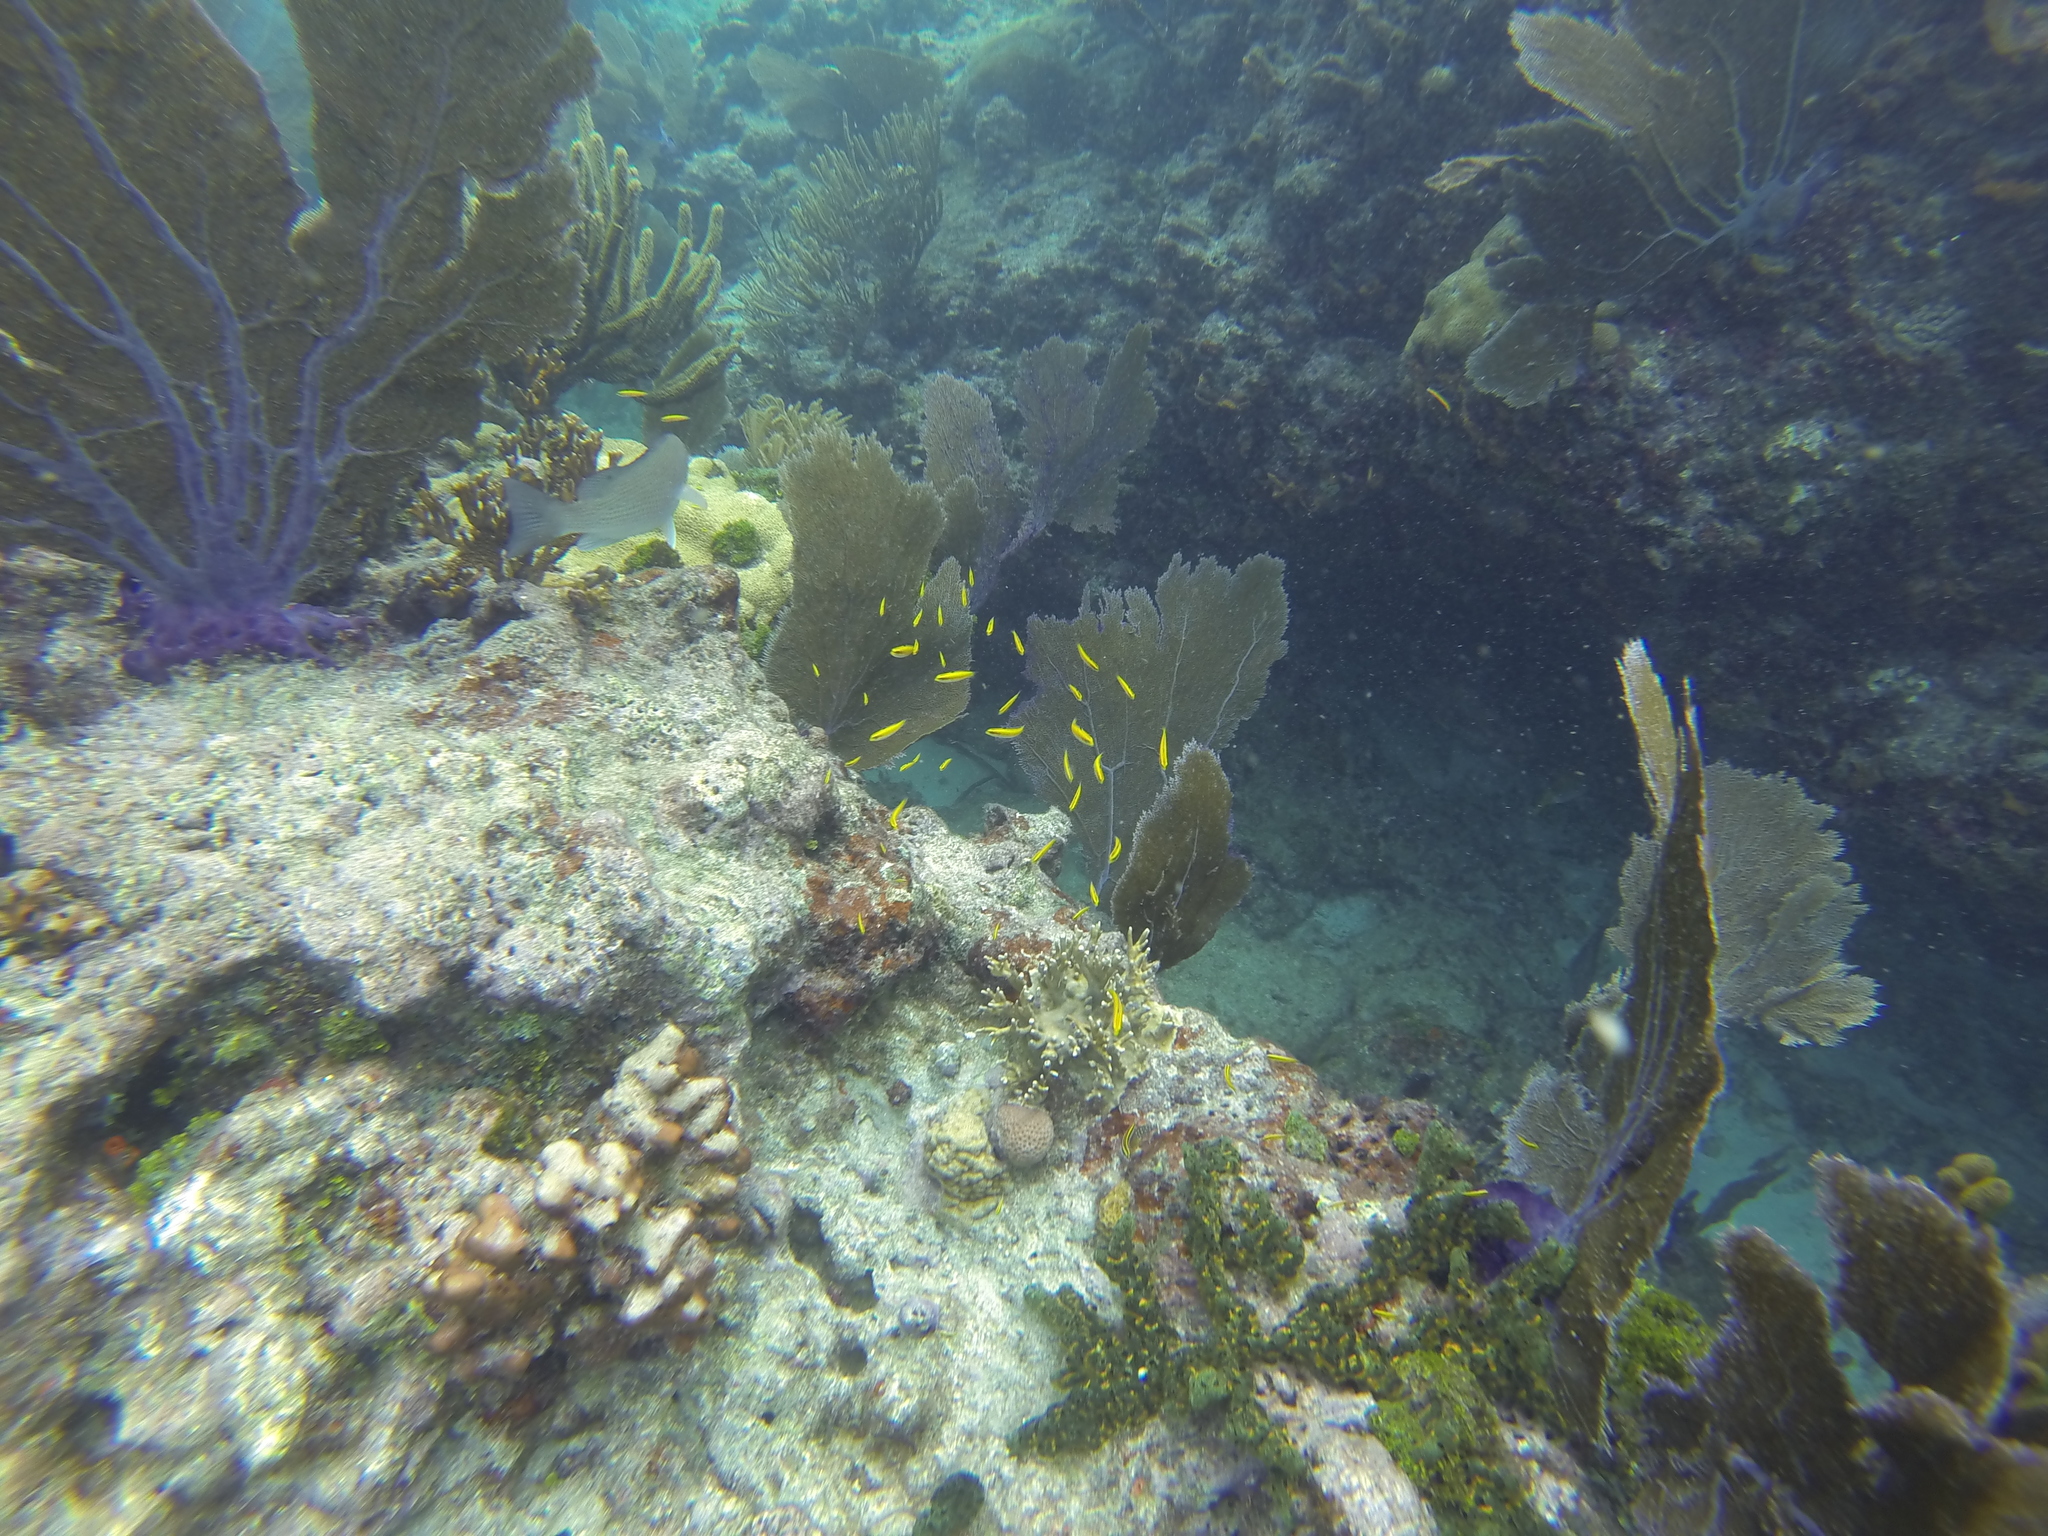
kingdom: Animalia
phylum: Chordata
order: Perciformes
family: Labridae
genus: Thalassoma
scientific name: Thalassoma bifasciatum
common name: Bluehead wrasse
